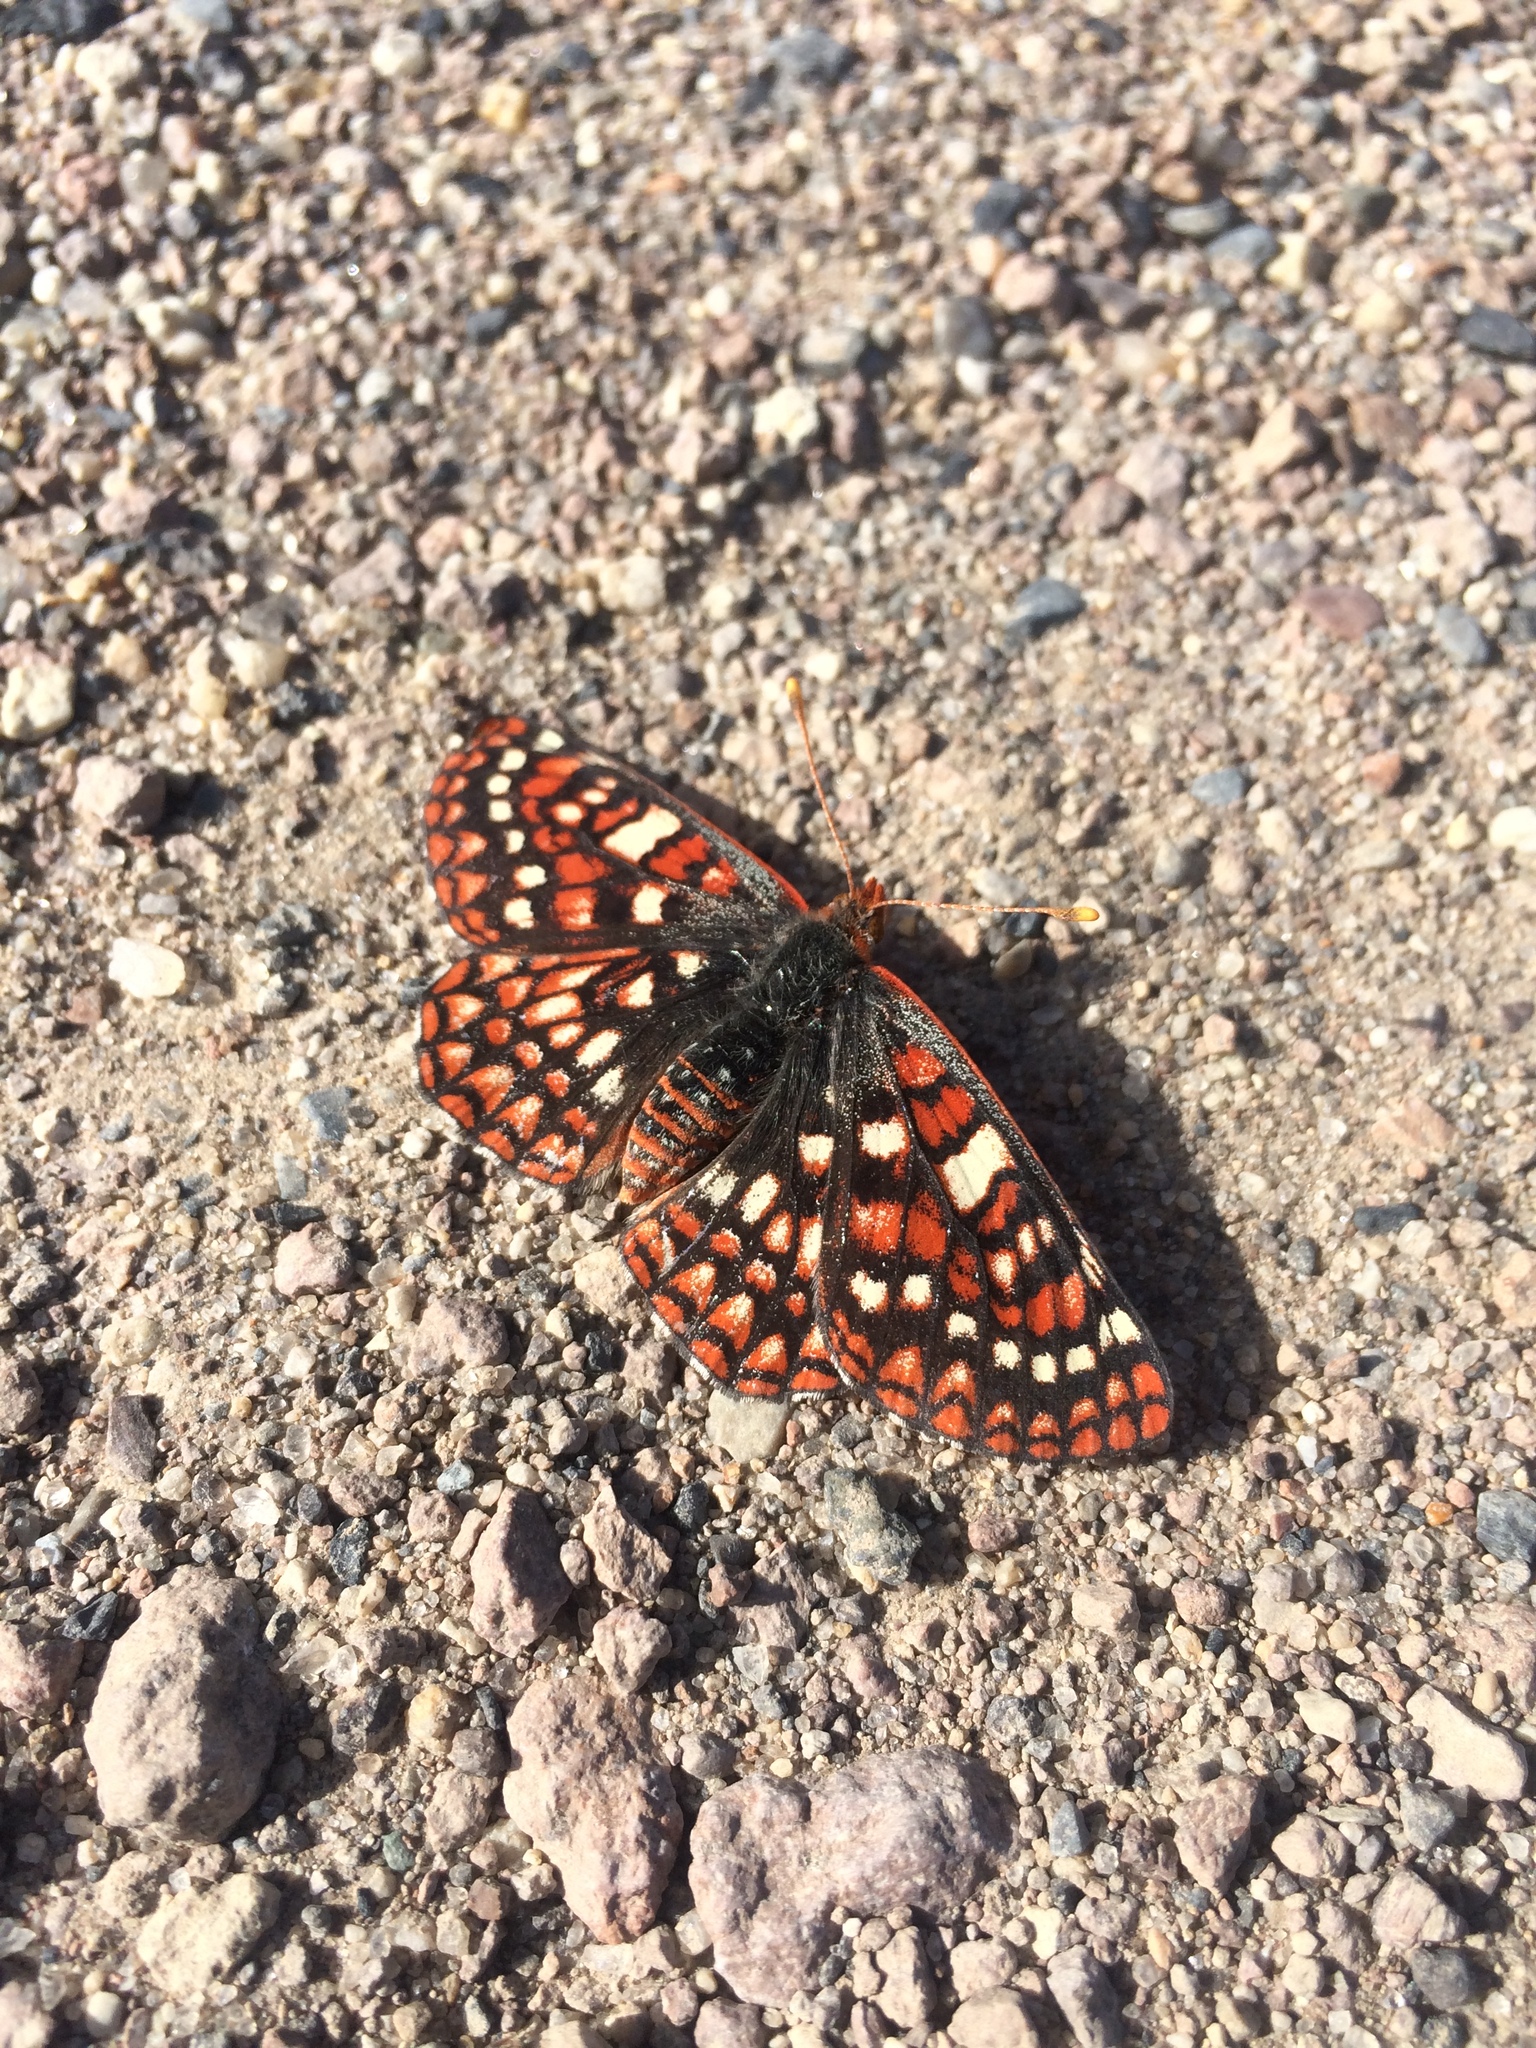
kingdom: Animalia
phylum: Arthropoda
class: Insecta
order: Lepidoptera
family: Nymphalidae
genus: Occidryas
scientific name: Occidryas anicia
